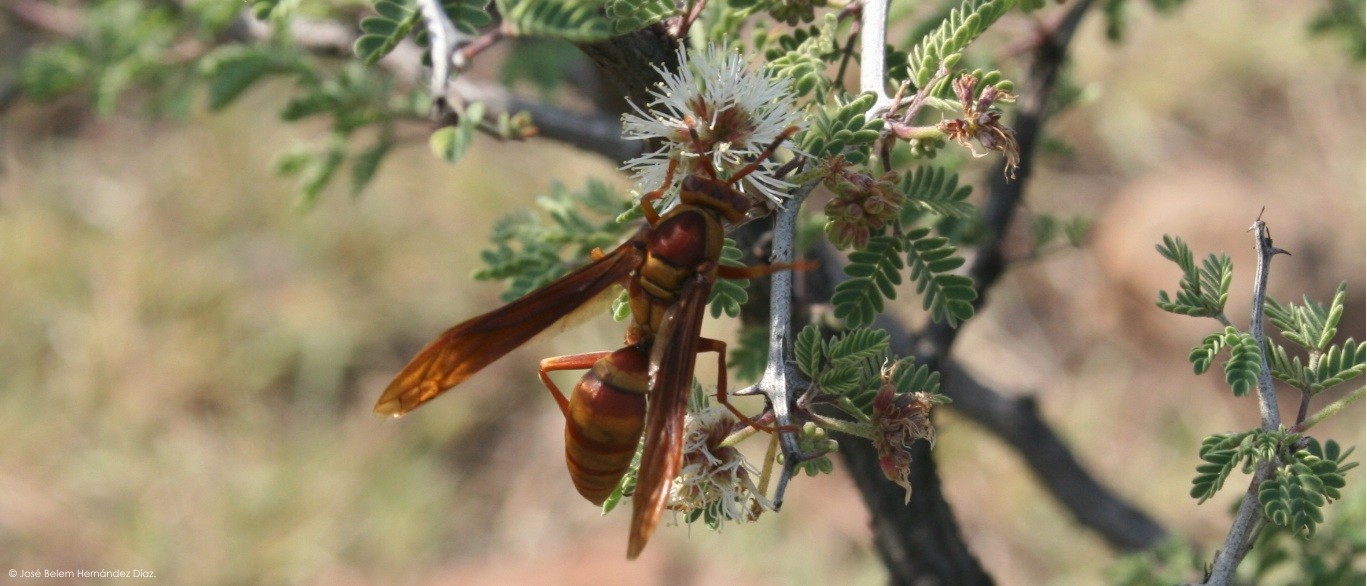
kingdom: Animalia
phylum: Arthropoda
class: Insecta
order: Hymenoptera
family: Eumenidae
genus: Polistes
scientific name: Polistes major
